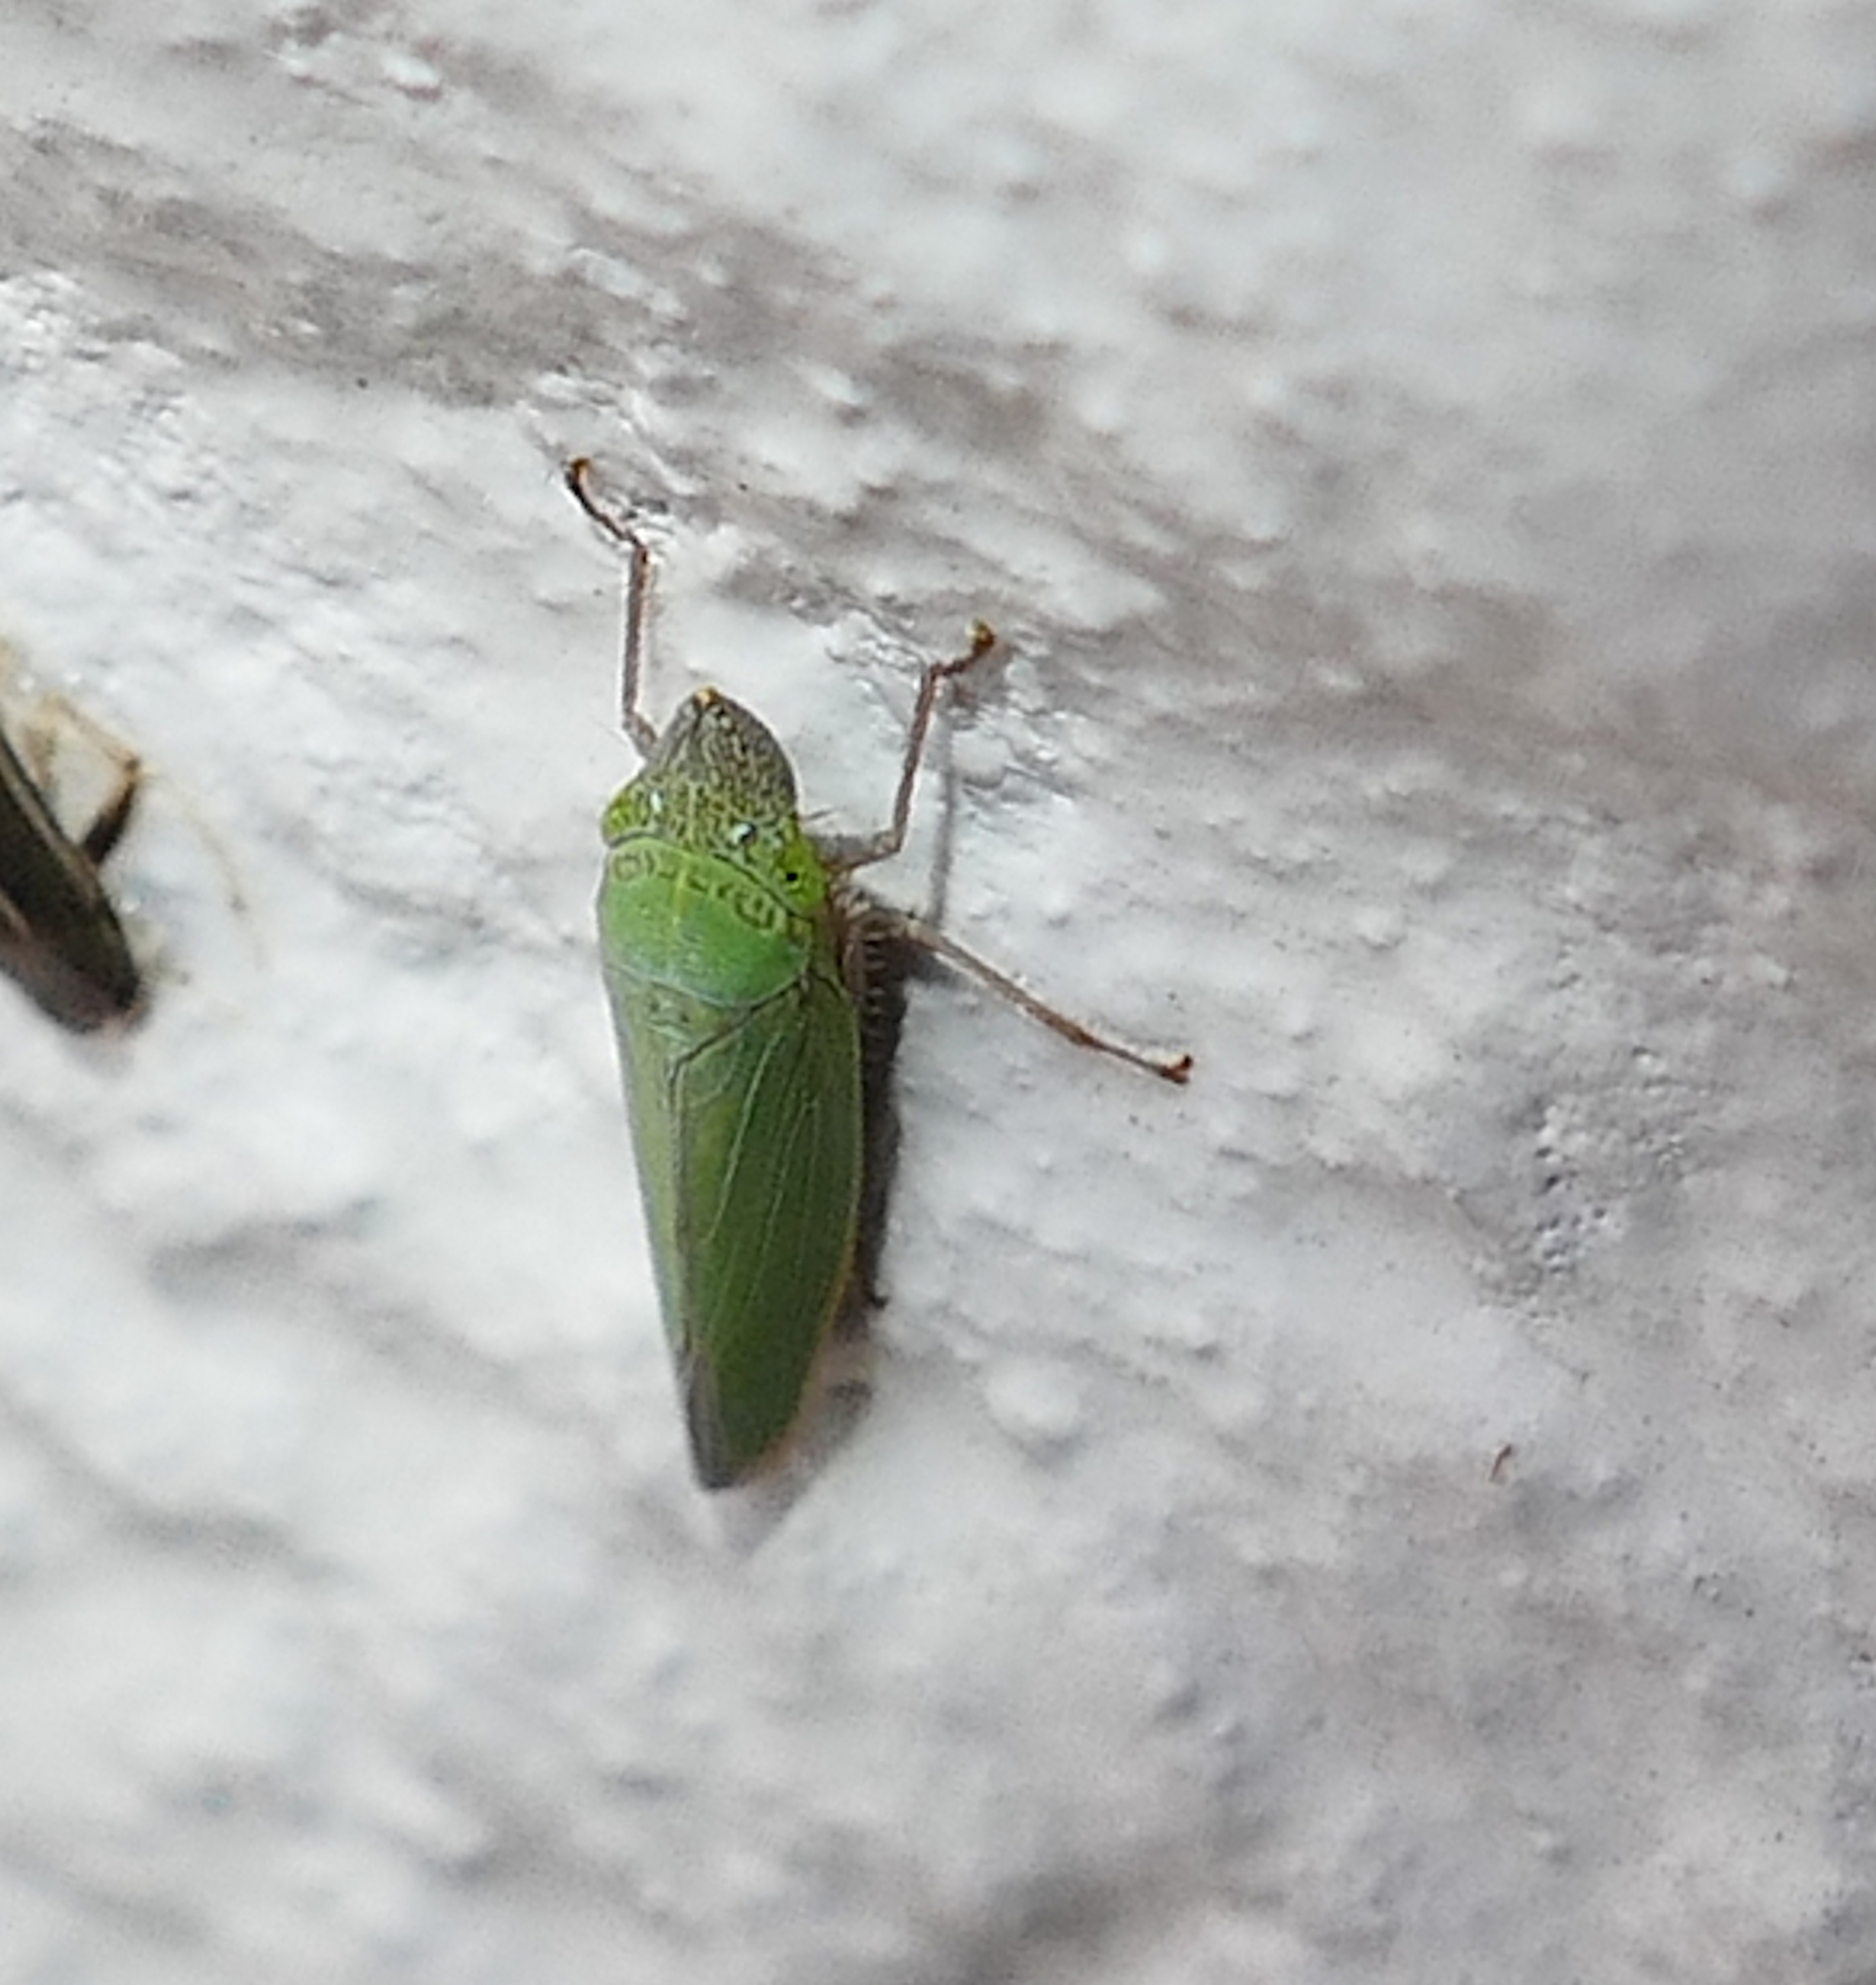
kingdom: Animalia
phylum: Arthropoda
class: Insecta
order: Hemiptera
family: Cicadellidae
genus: Draeculacephala
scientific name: Draeculacephala floridana
